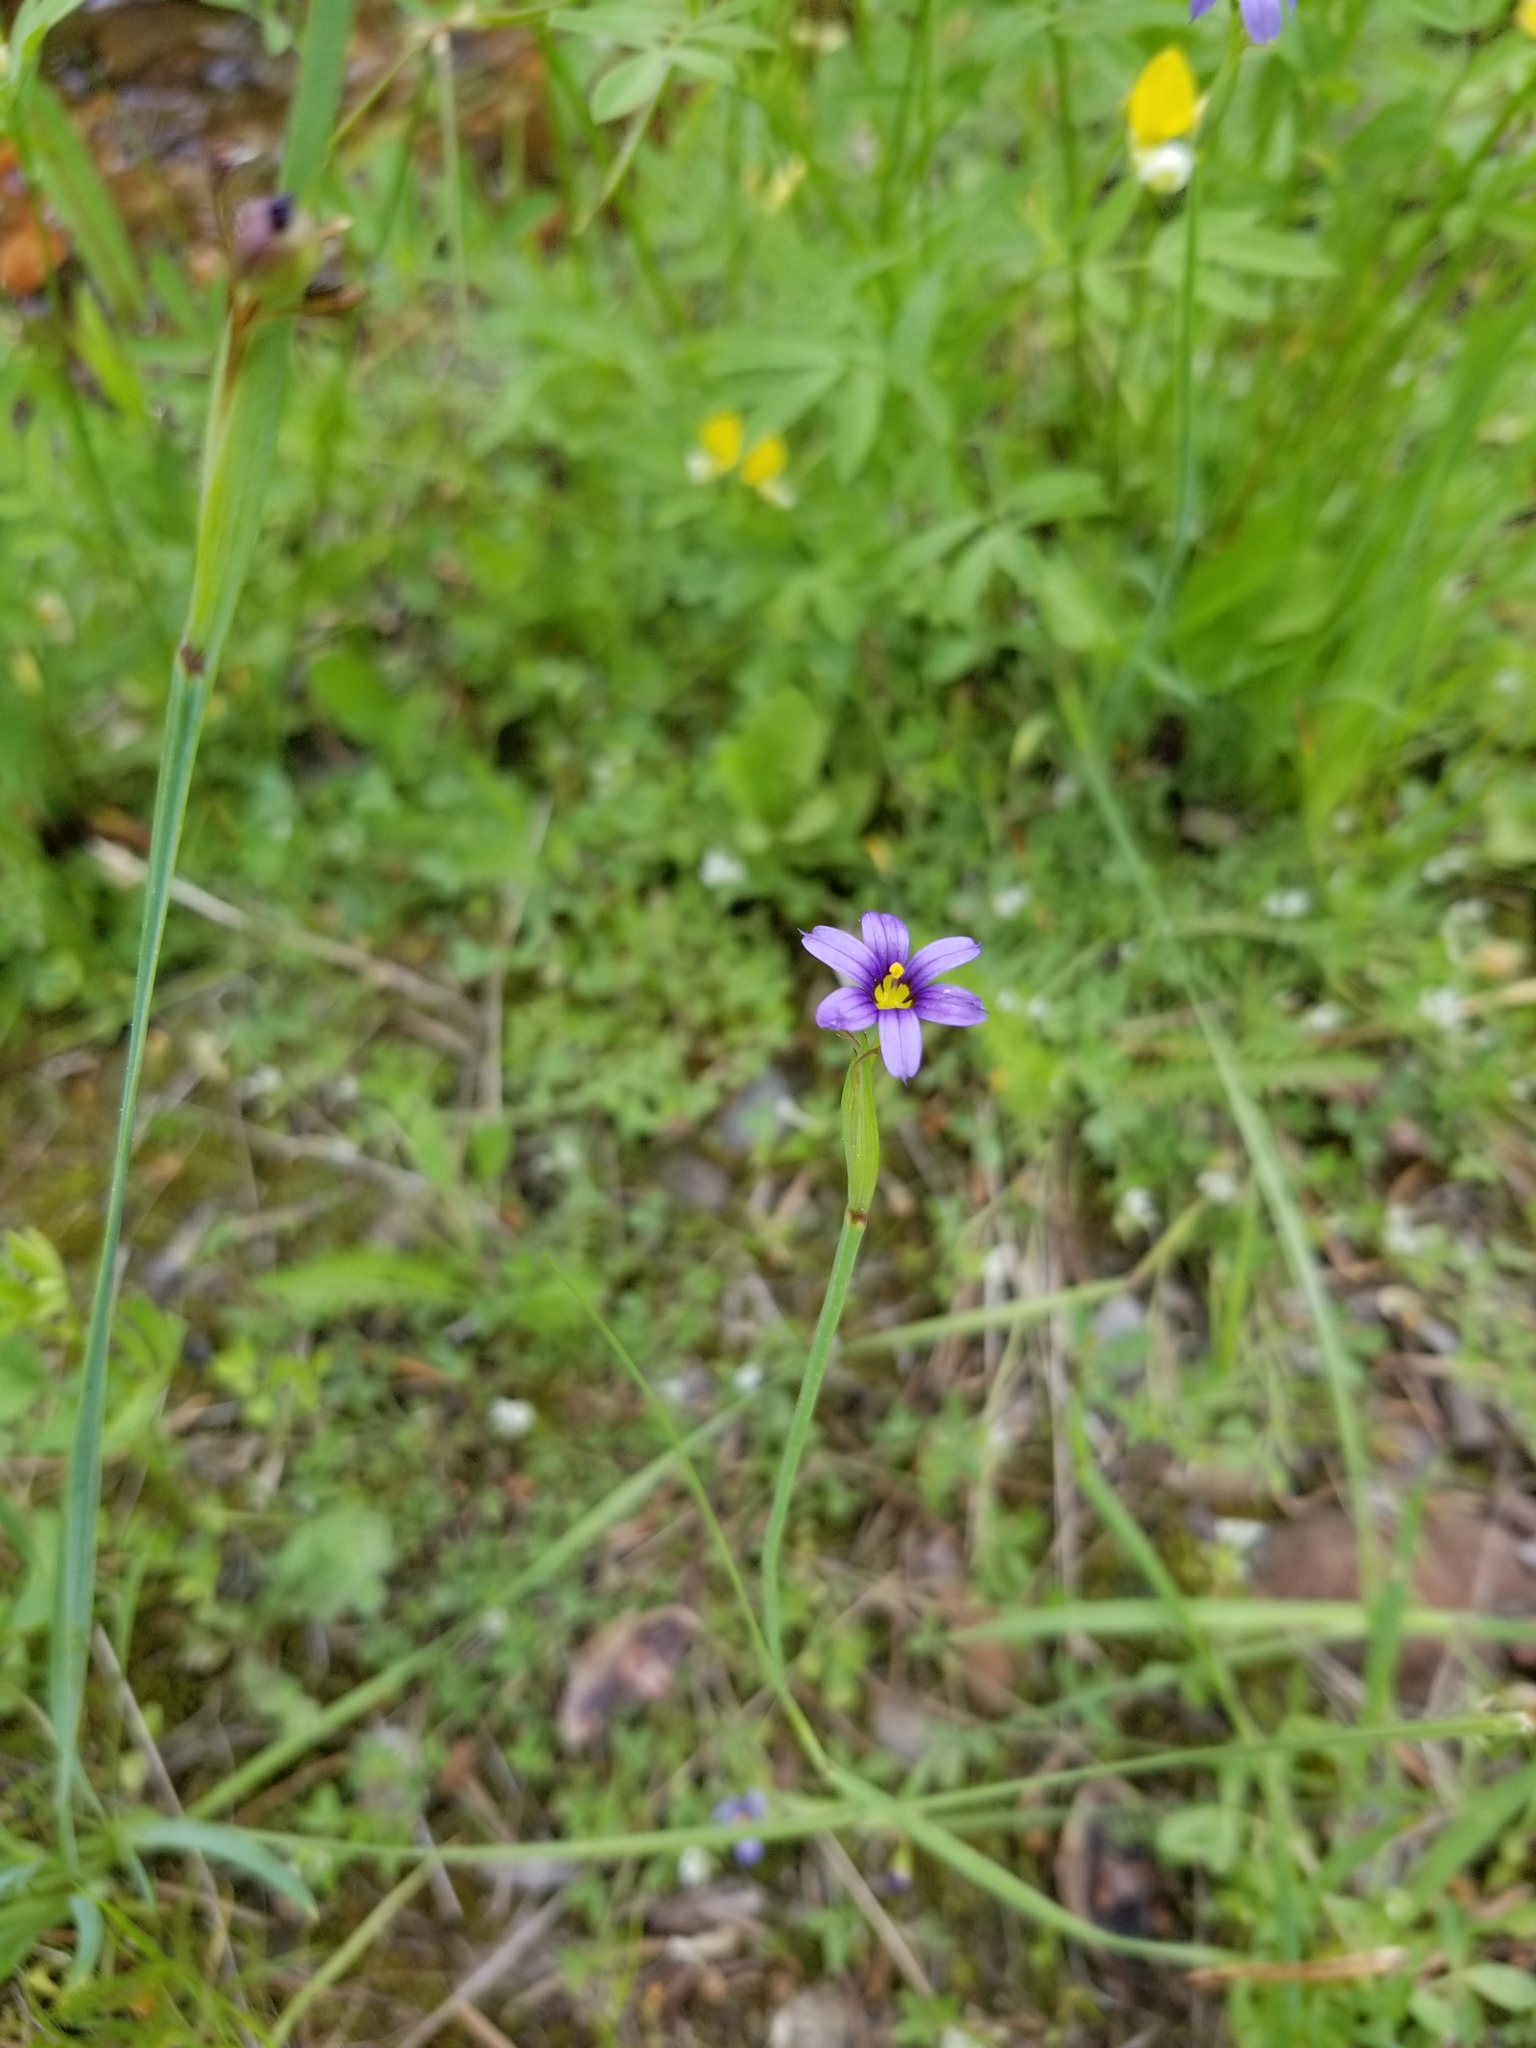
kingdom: Plantae
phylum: Tracheophyta
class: Liliopsida
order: Asparagales
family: Iridaceae
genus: Sisyrinchium
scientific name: Sisyrinchium bellum
